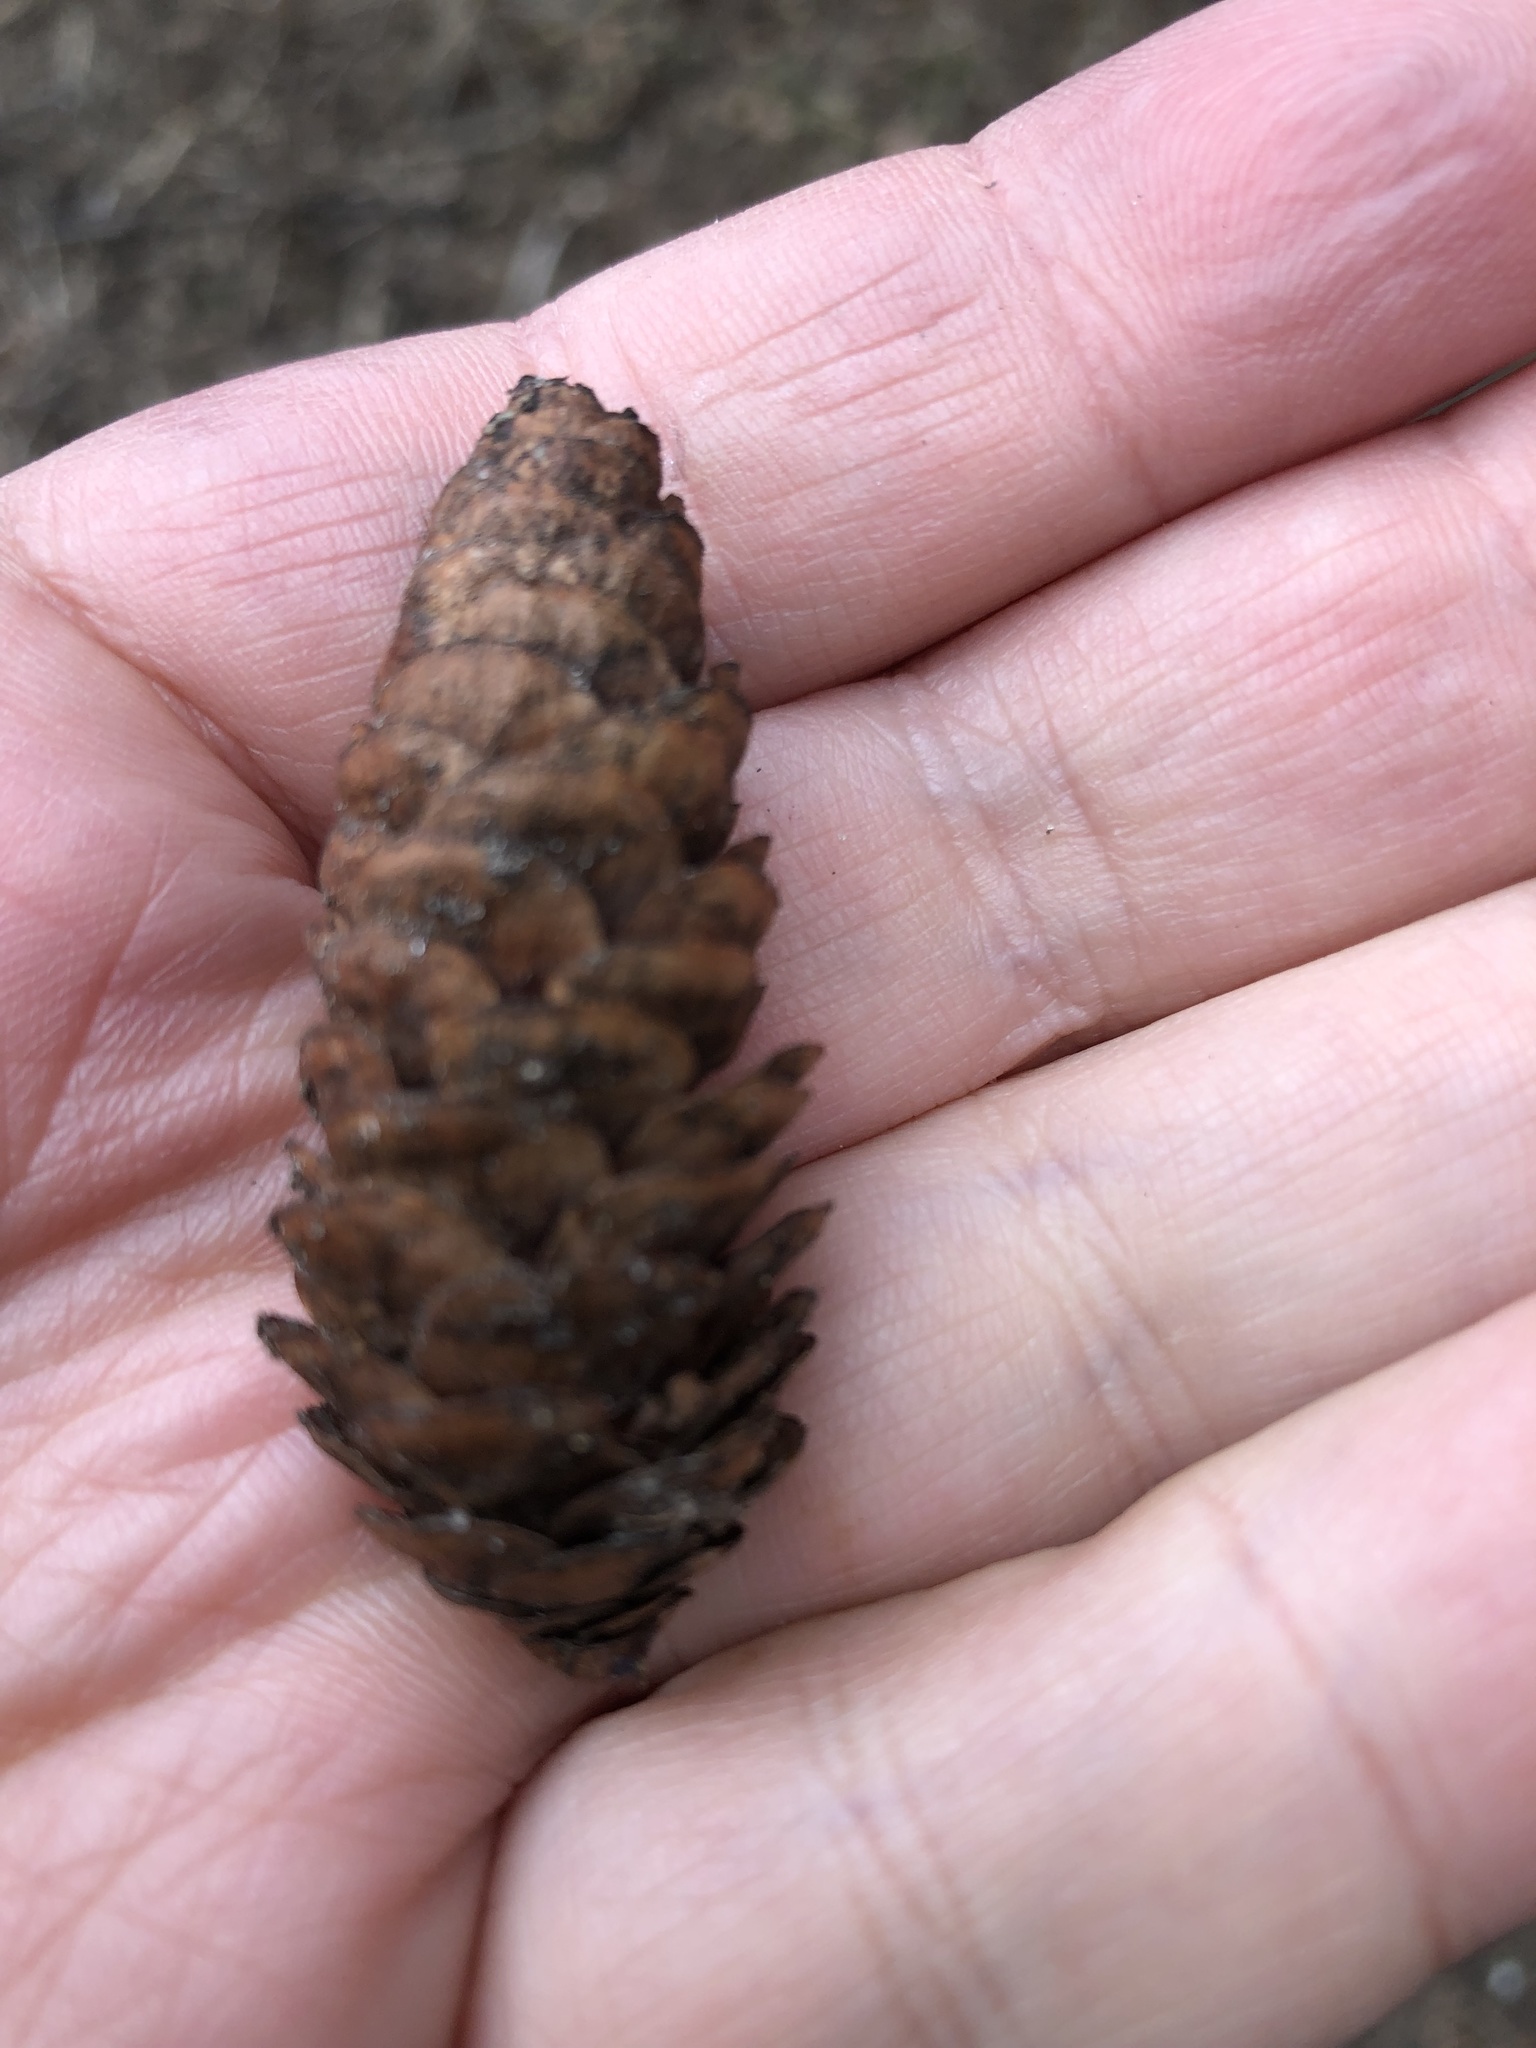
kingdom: Plantae
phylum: Tracheophyta
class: Pinopsida
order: Pinales
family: Pinaceae
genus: Picea
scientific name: Picea glauca
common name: White spruce
